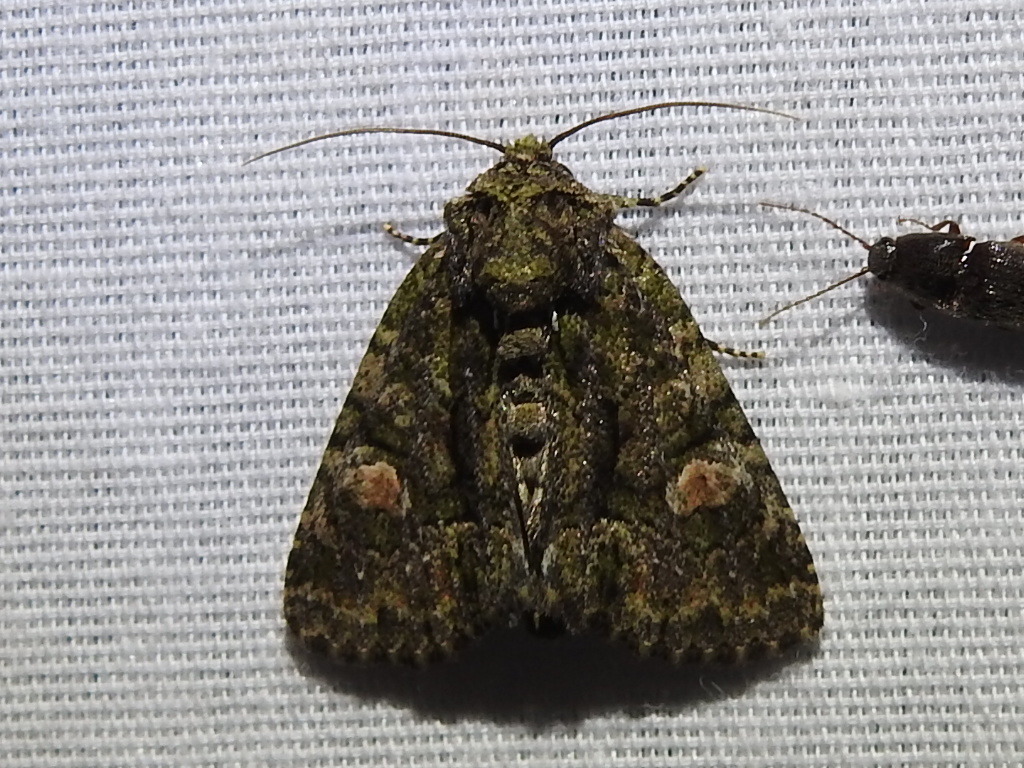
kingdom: Animalia
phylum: Arthropoda
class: Insecta
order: Lepidoptera
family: Noctuidae
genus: Phosphila
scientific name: Phosphila miselioides
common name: Spotted phosphila moth
